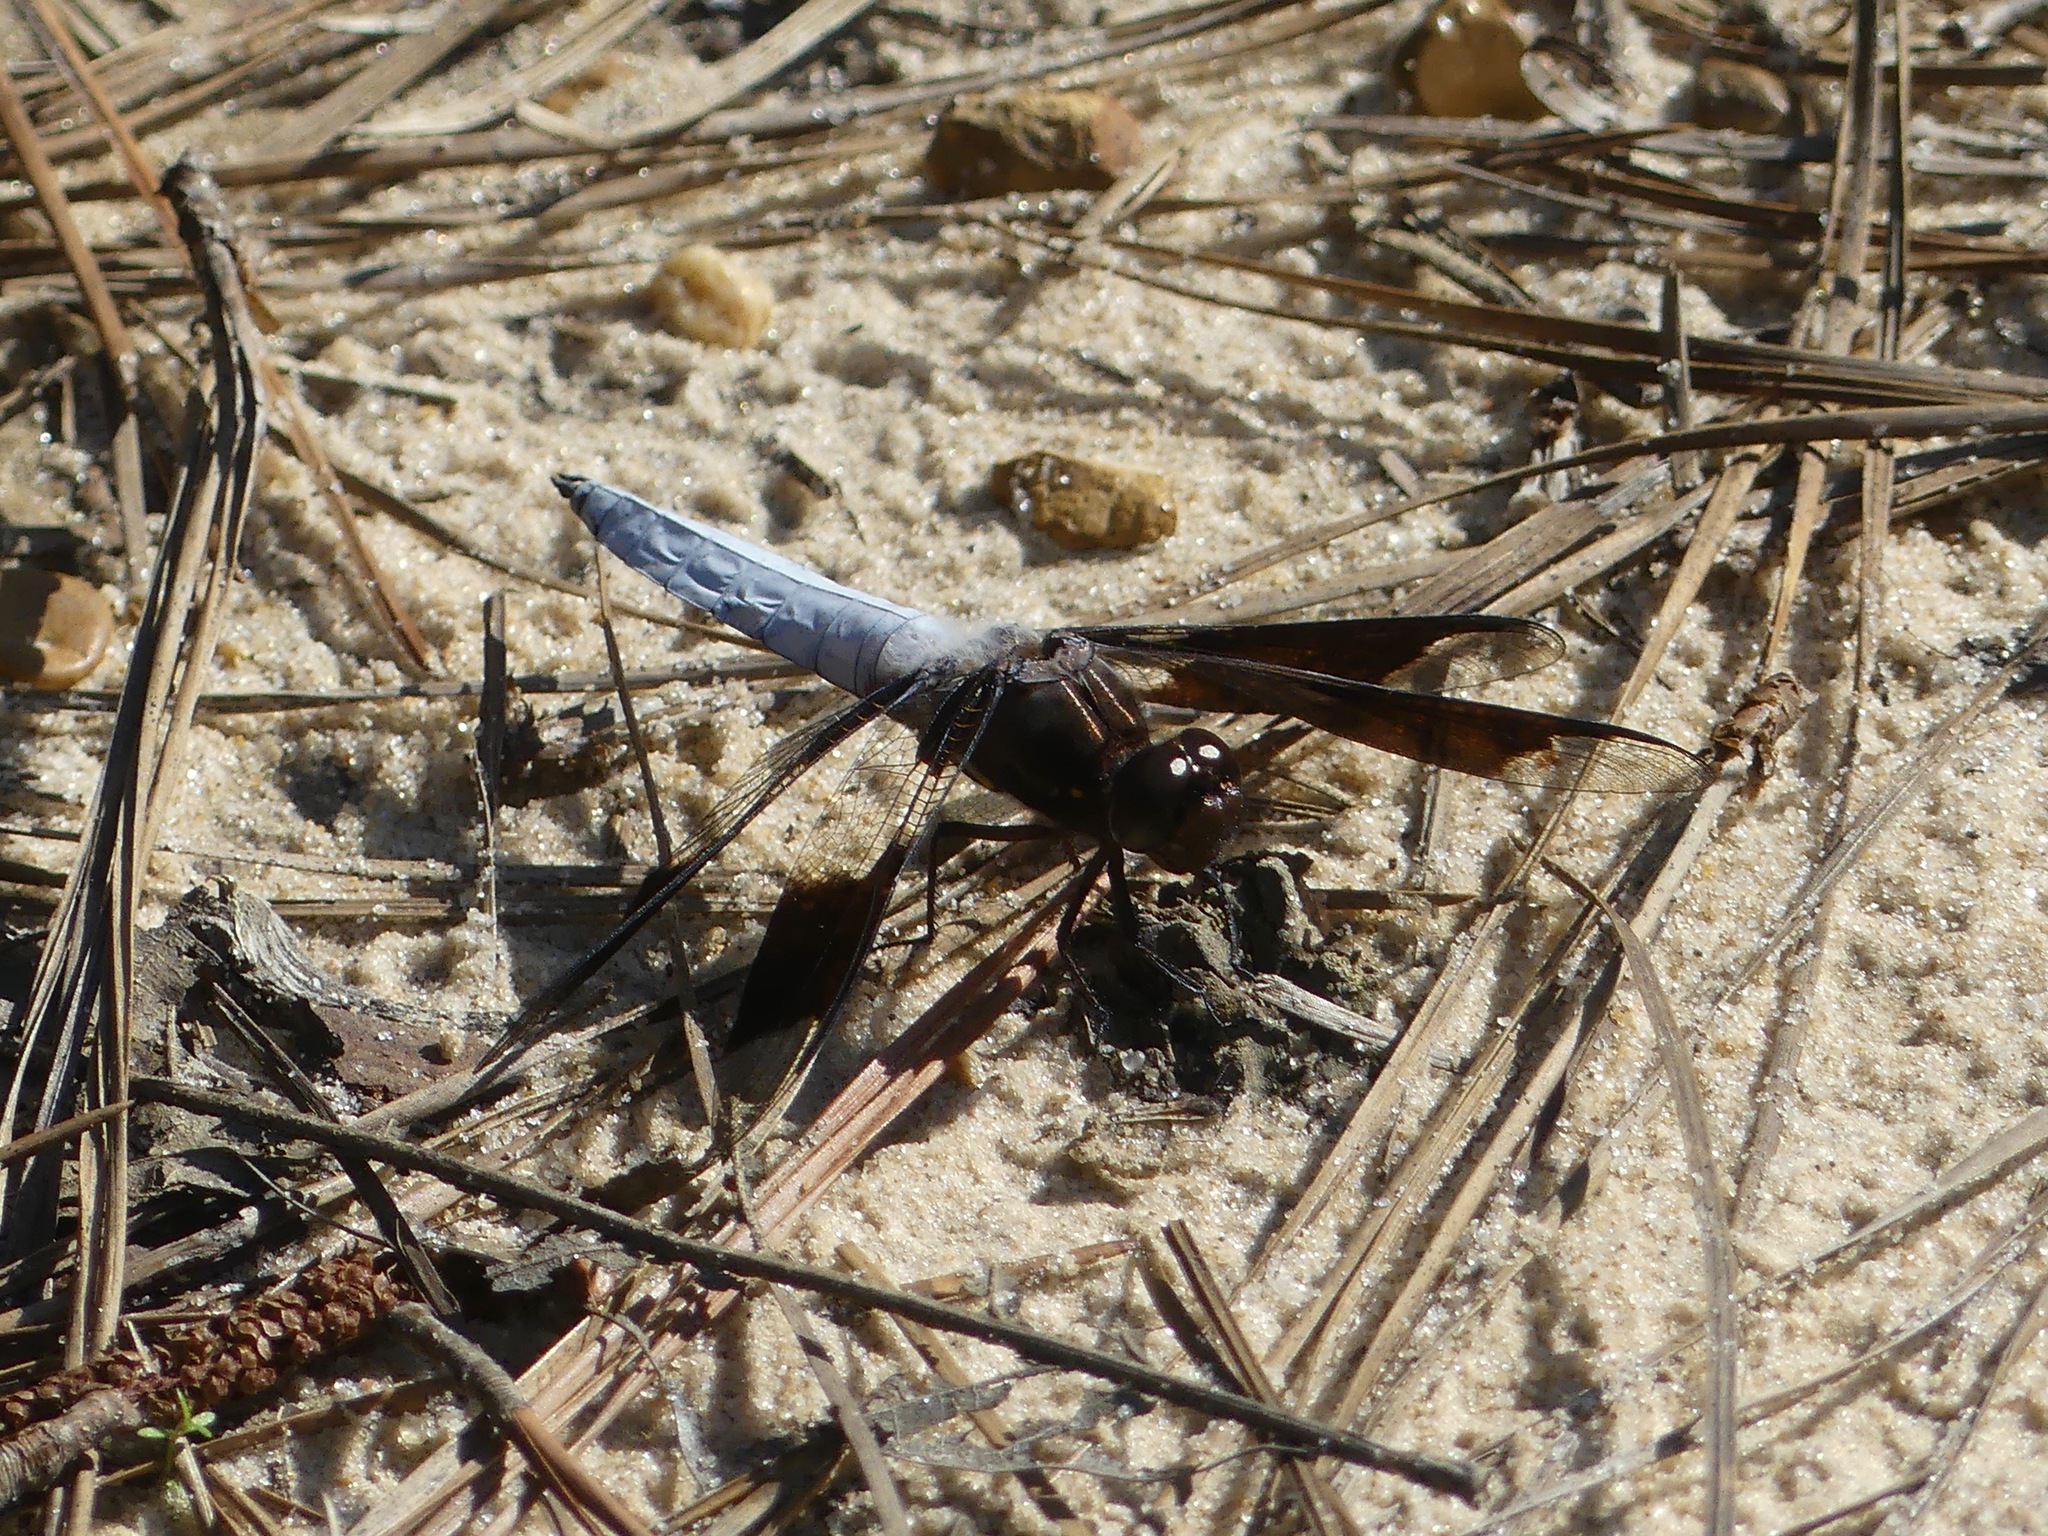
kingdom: Animalia
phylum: Arthropoda
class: Insecta
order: Odonata
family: Libellulidae
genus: Plathemis
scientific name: Plathemis lydia
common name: Common whitetail
